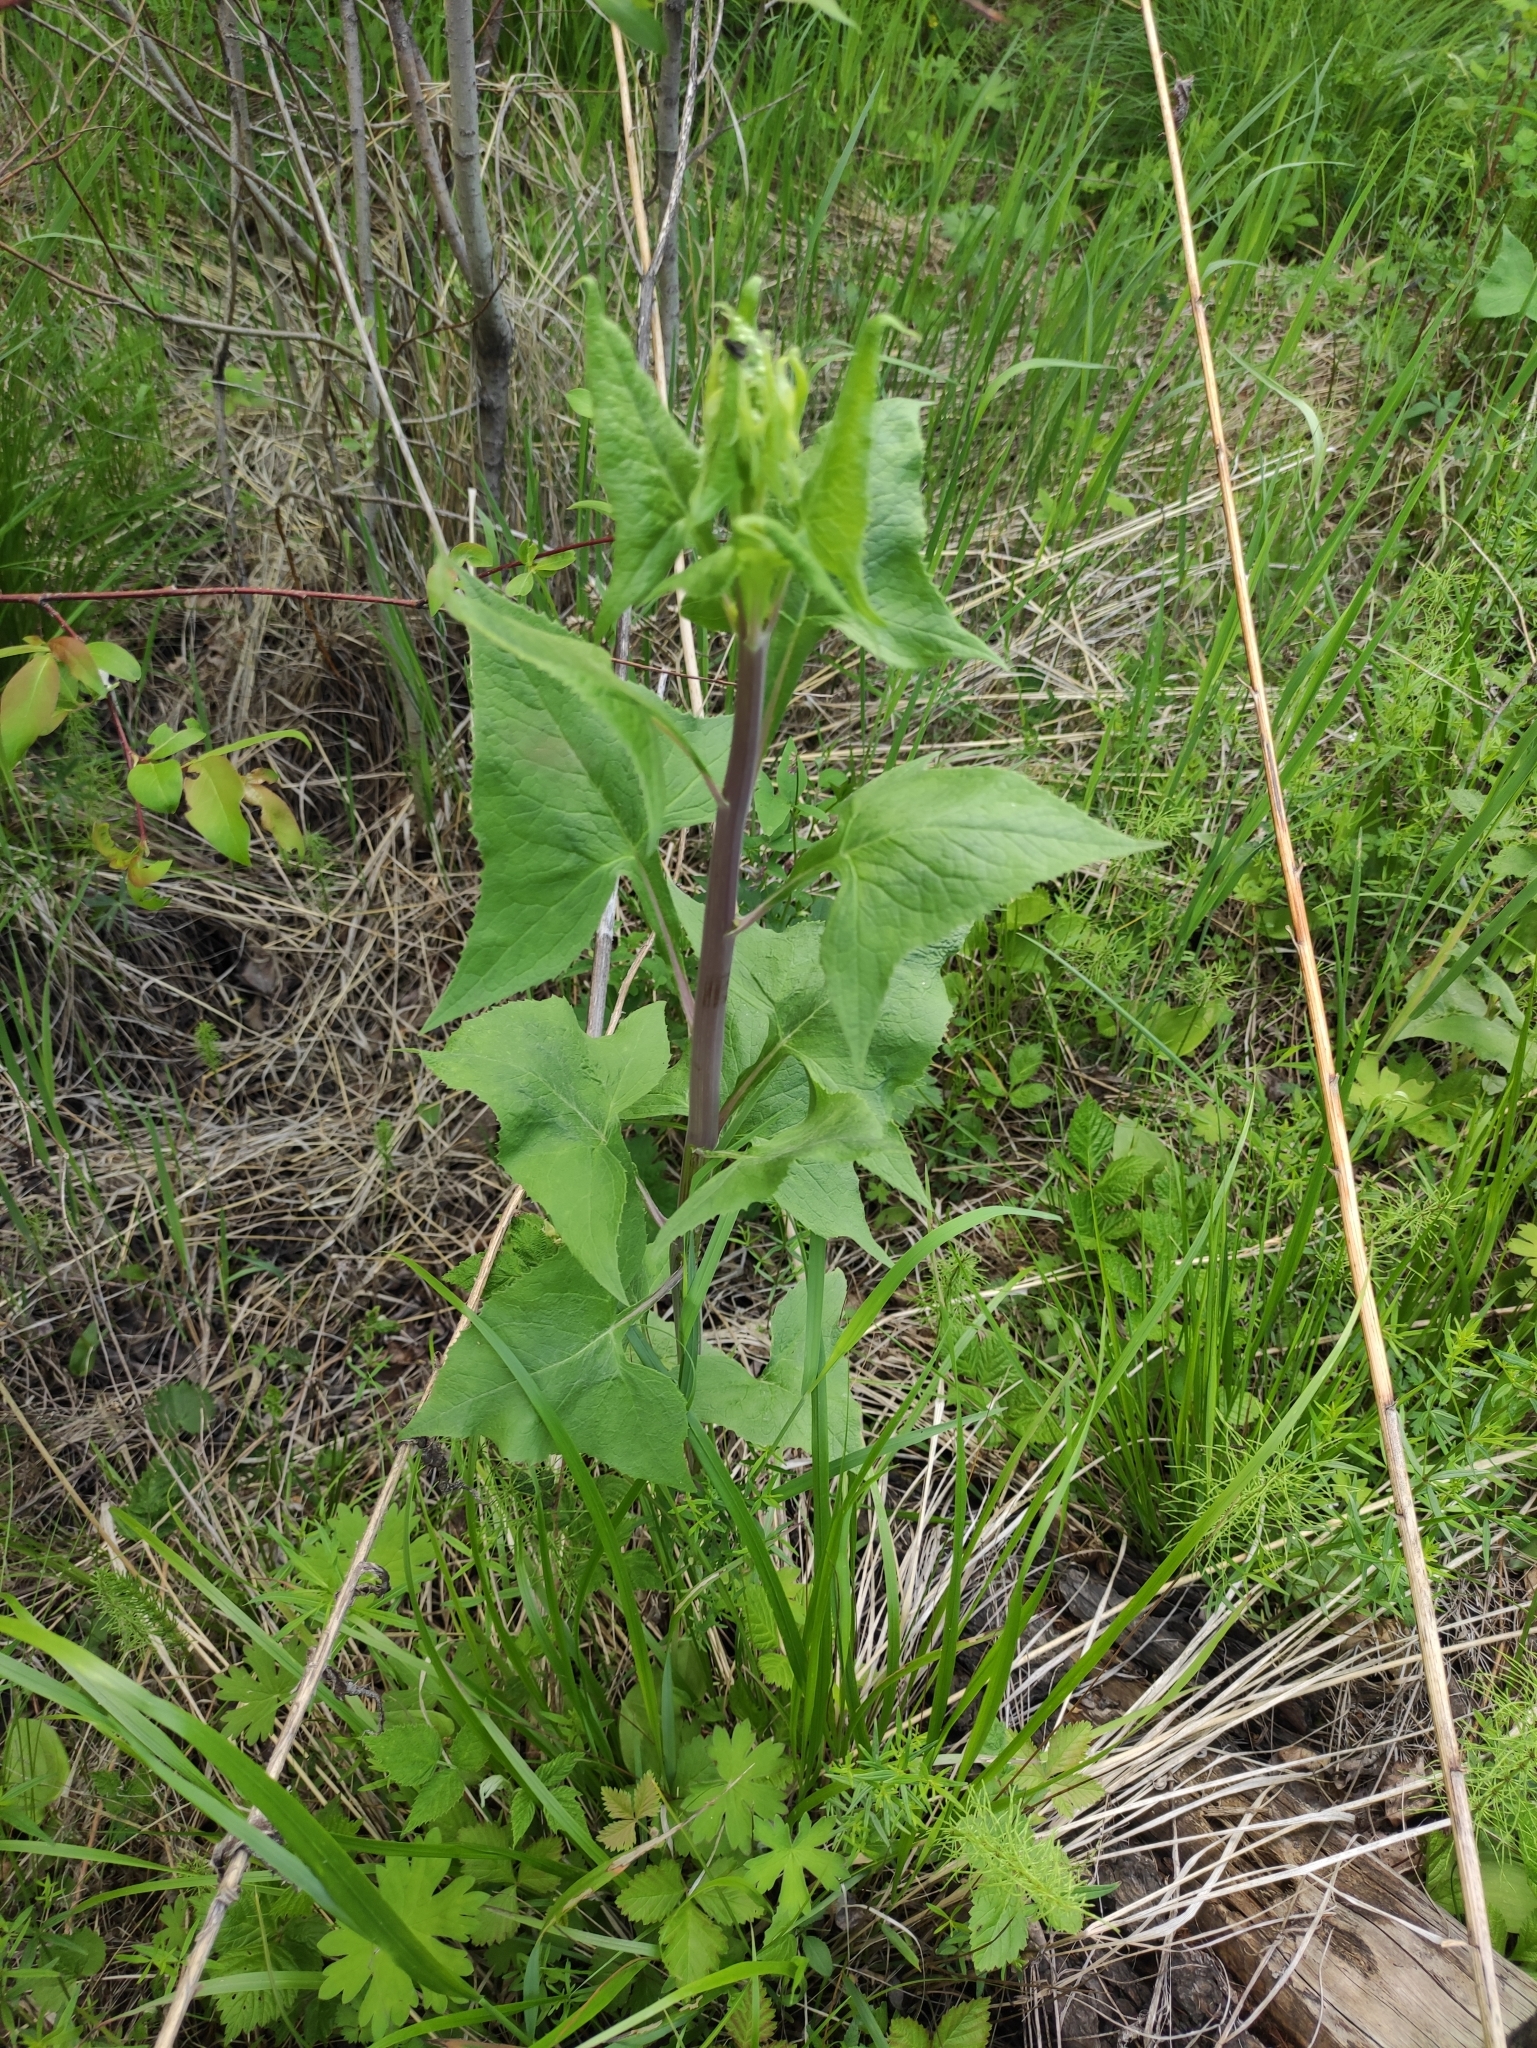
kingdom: Plantae
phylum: Tracheophyta
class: Magnoliopsida
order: Asterales
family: Asteraceae
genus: Parasenecio
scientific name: Parasenecio hastatus
